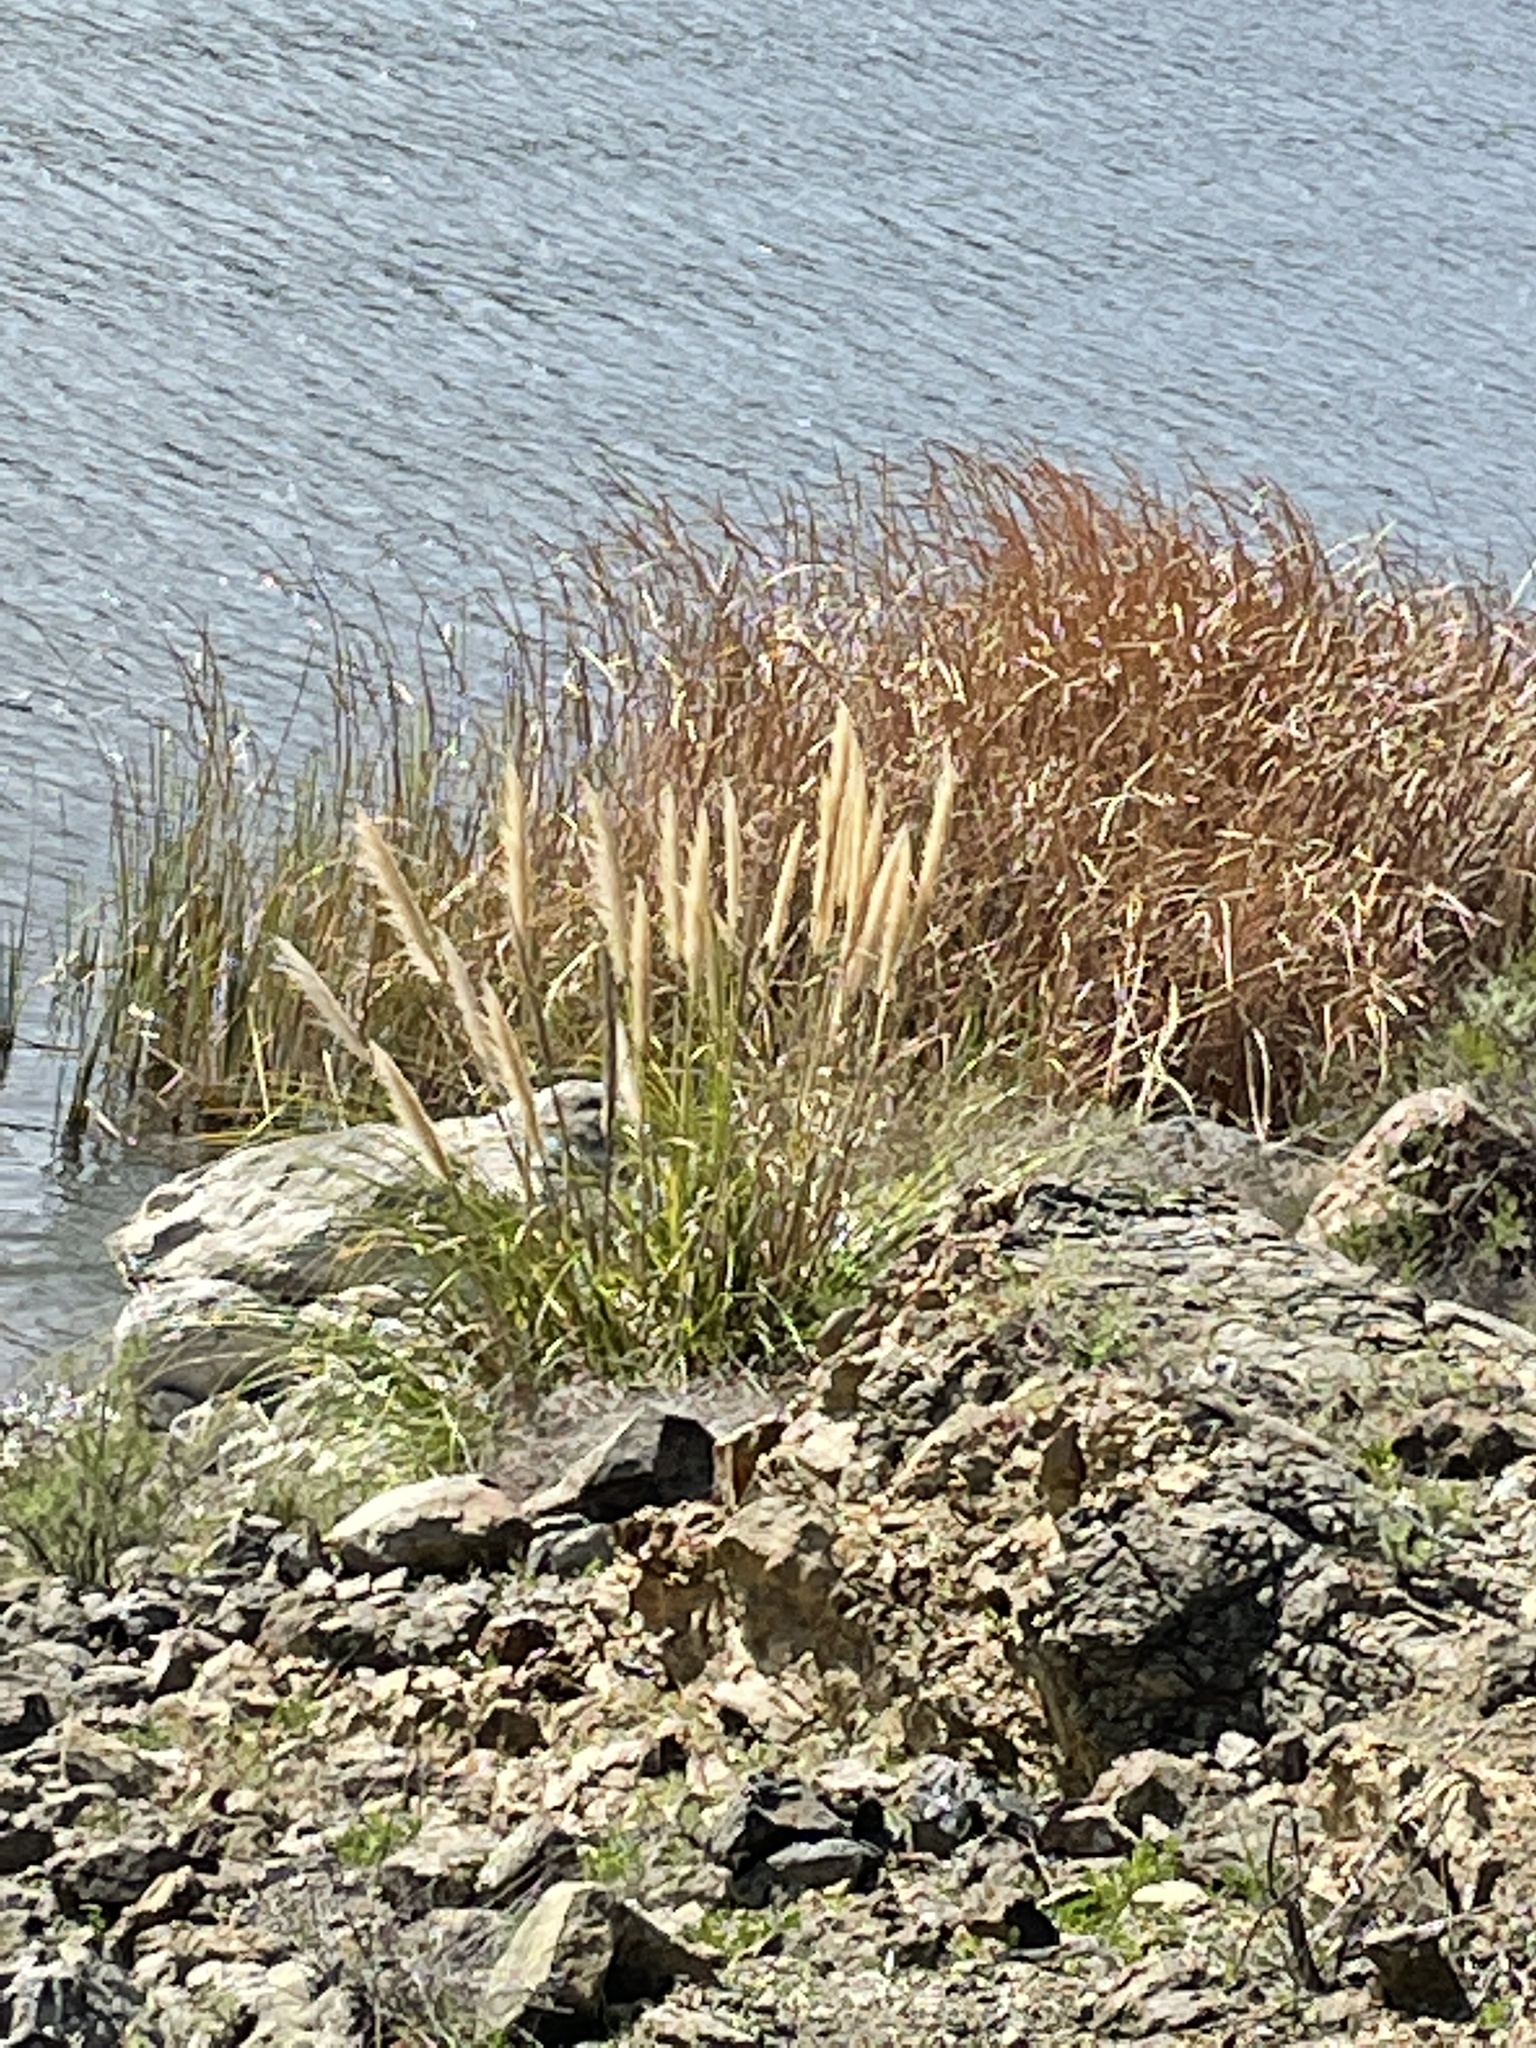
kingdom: Plantae
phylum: Tracheophyta
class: Liliopsida
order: Poales
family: Poaceae
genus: Cortaderia
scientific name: Cortaderia selloana
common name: Uruguayan pampas grass
